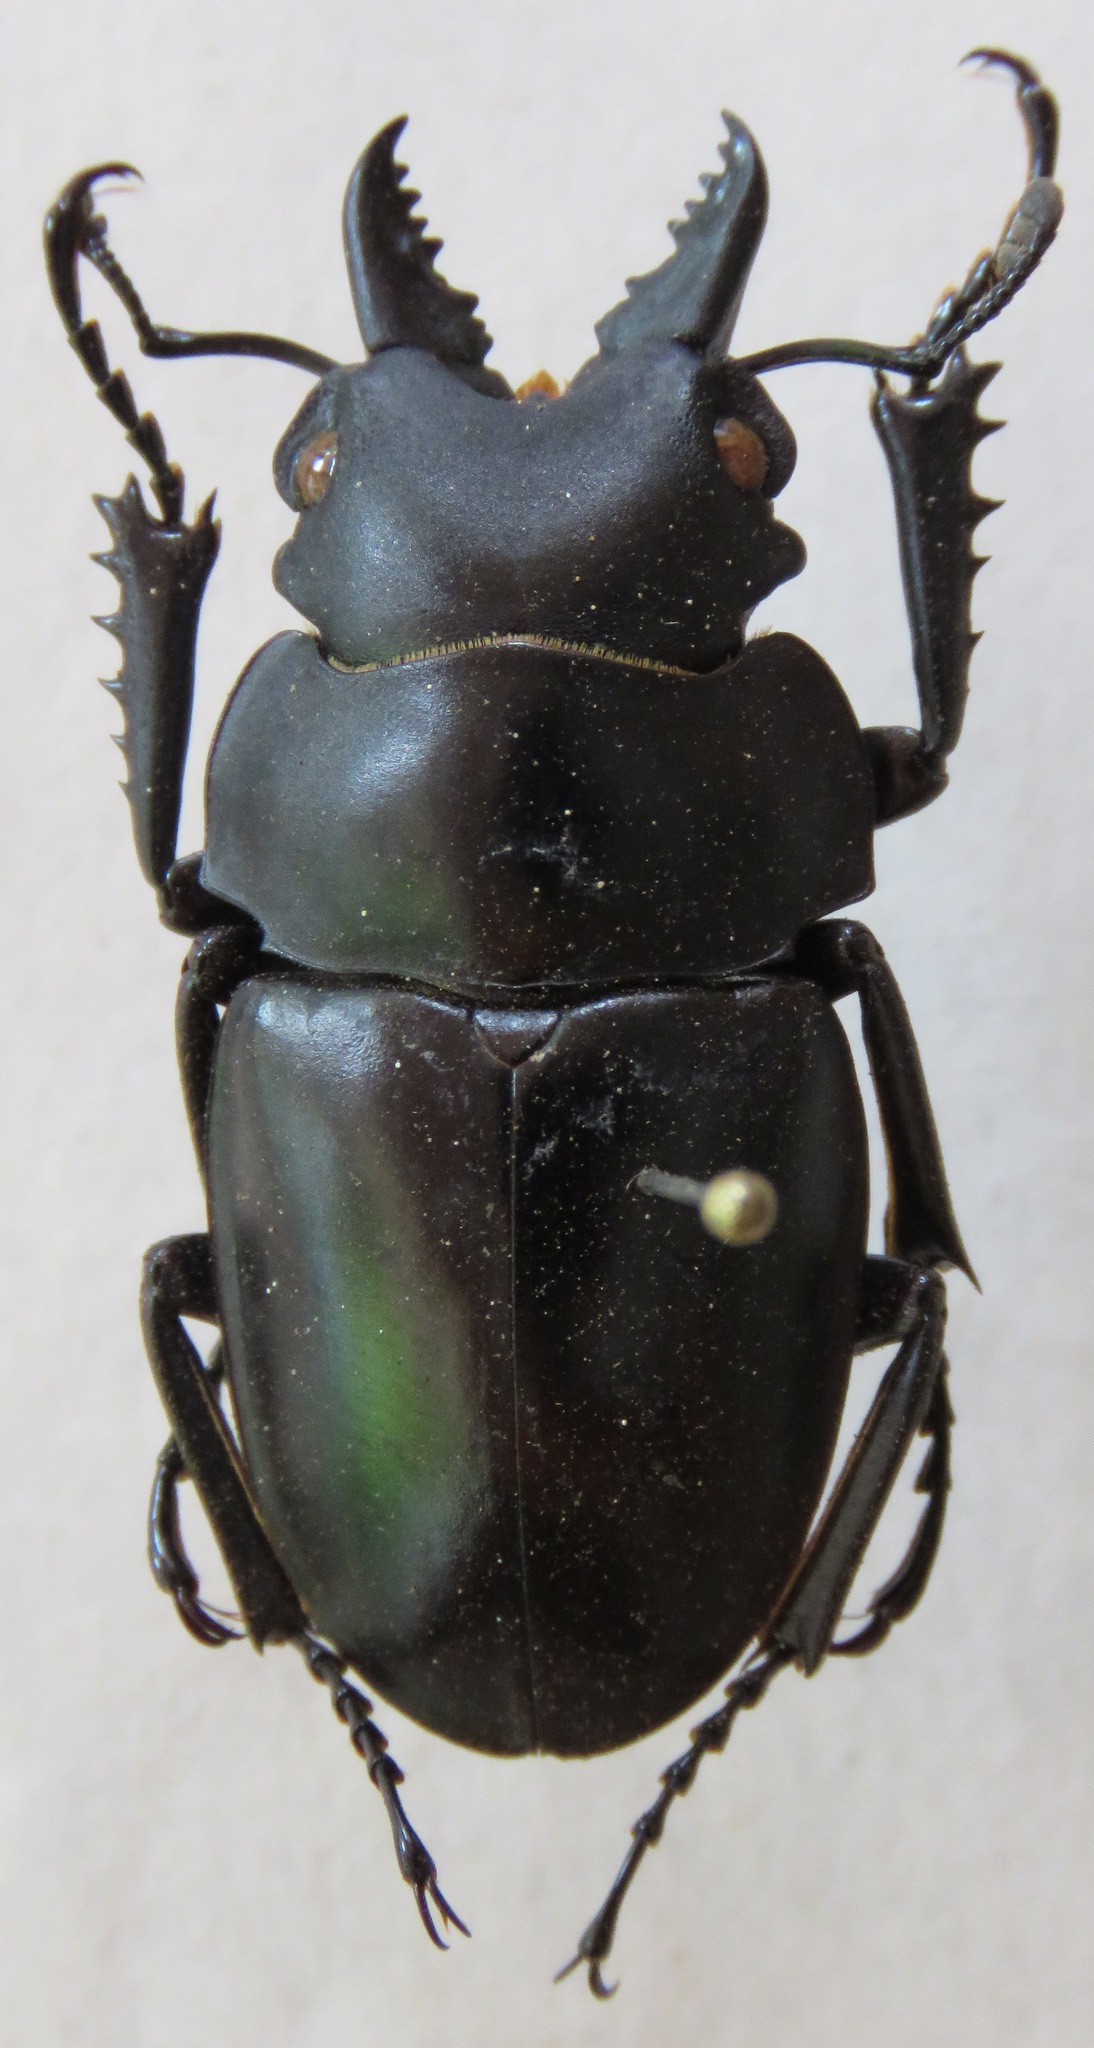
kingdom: Animalia
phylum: Arthropoda
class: Insecta
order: Coleoptera
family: Lucanidae
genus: Odontolabis
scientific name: Odontolabis platynota
